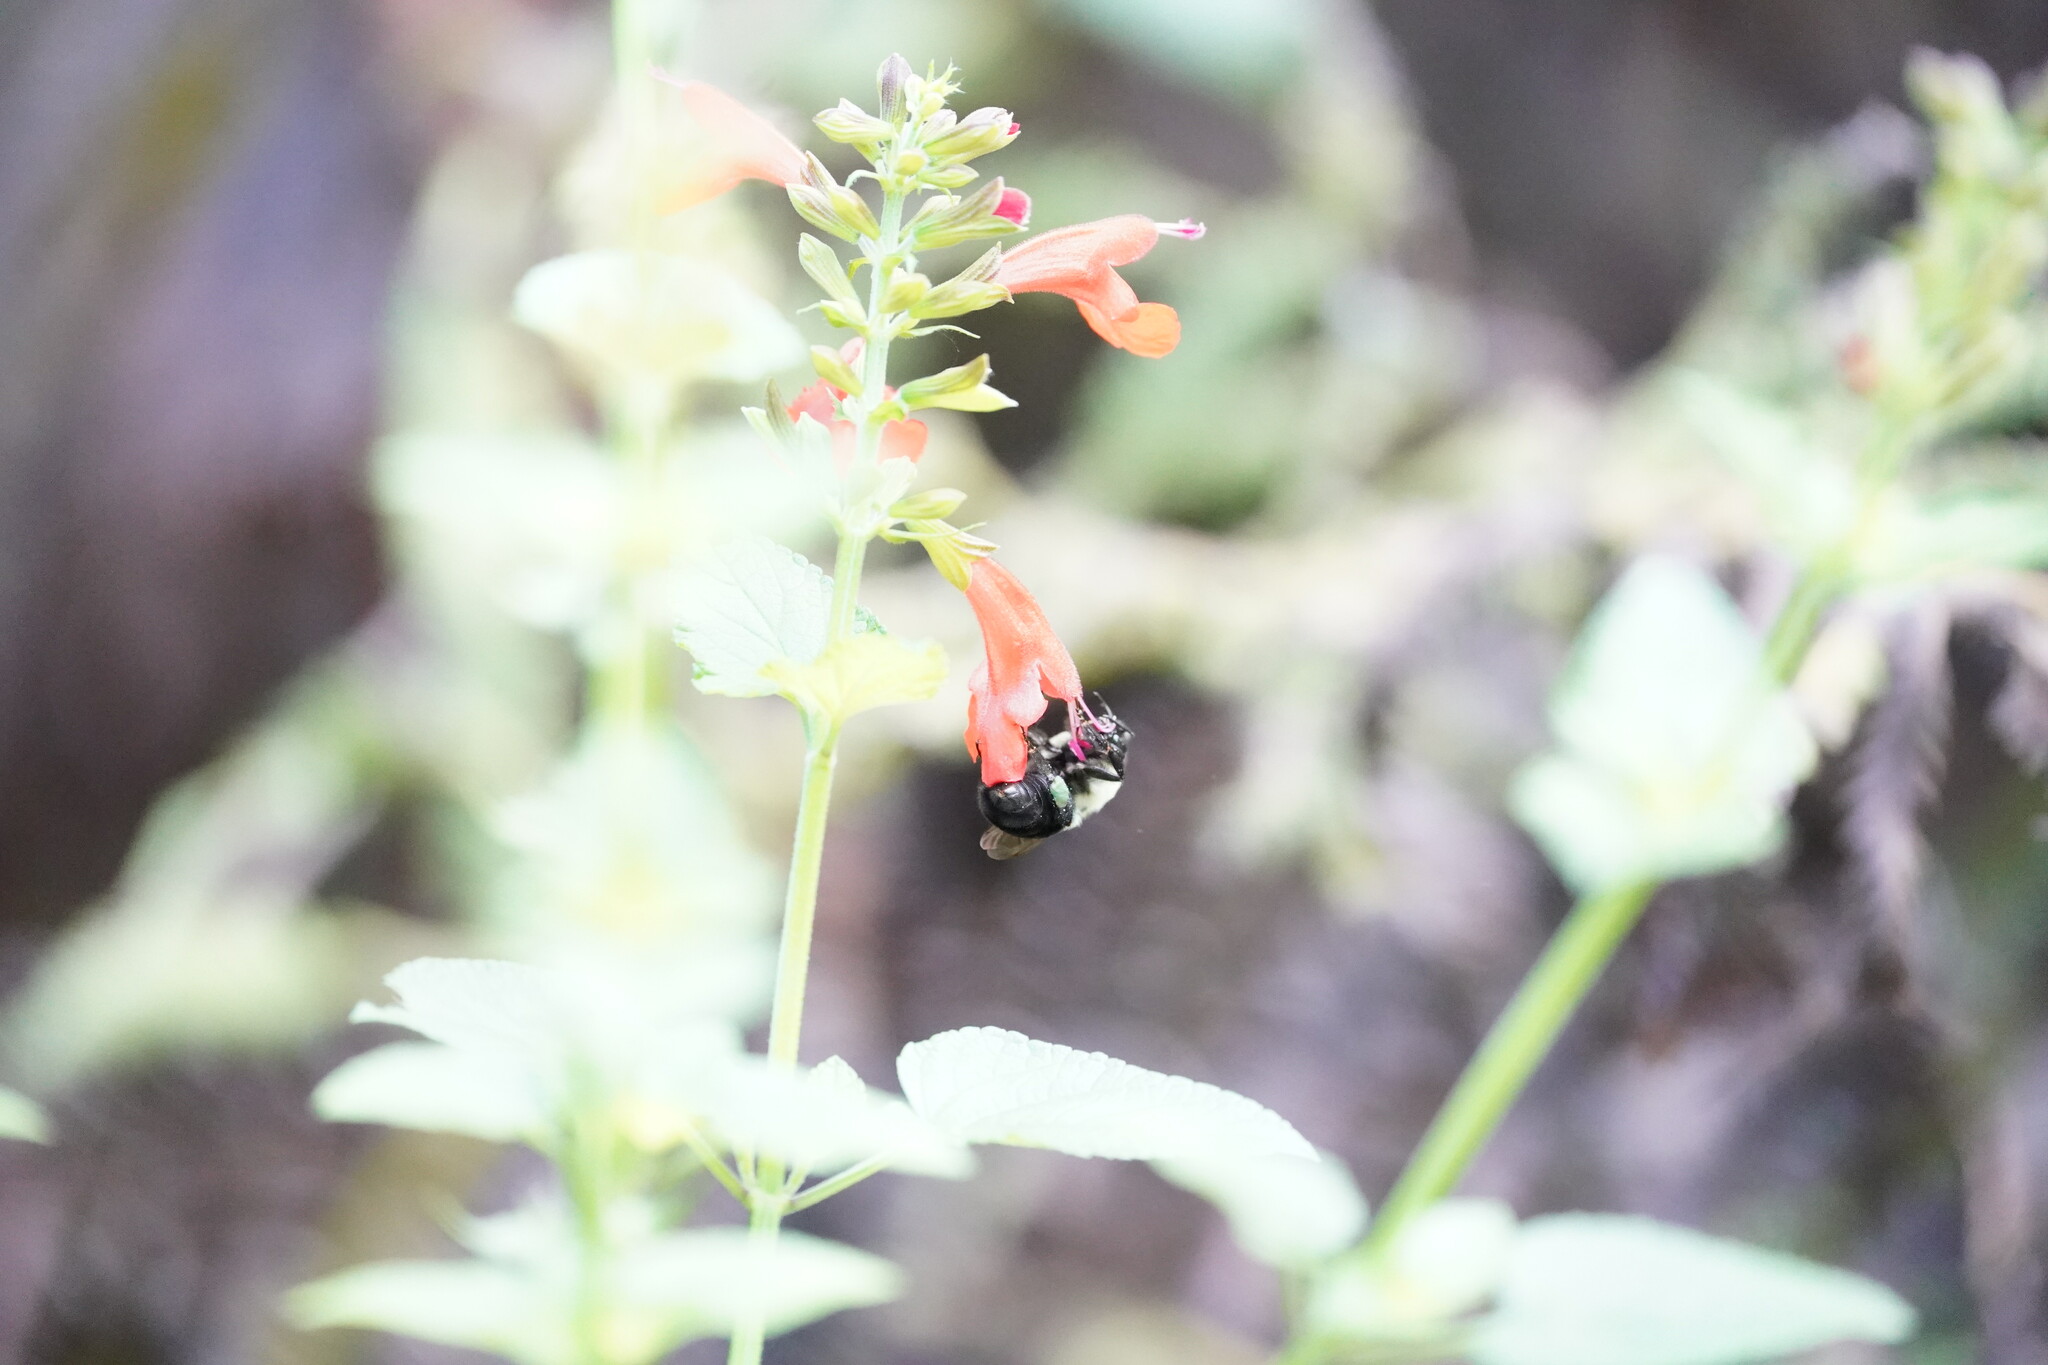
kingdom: Animalia
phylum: Arthropoda
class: Insecta
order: Hymenoptera
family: Apidae
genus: Bombus
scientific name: Bombus impatiens
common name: Common eastern bumble bee
